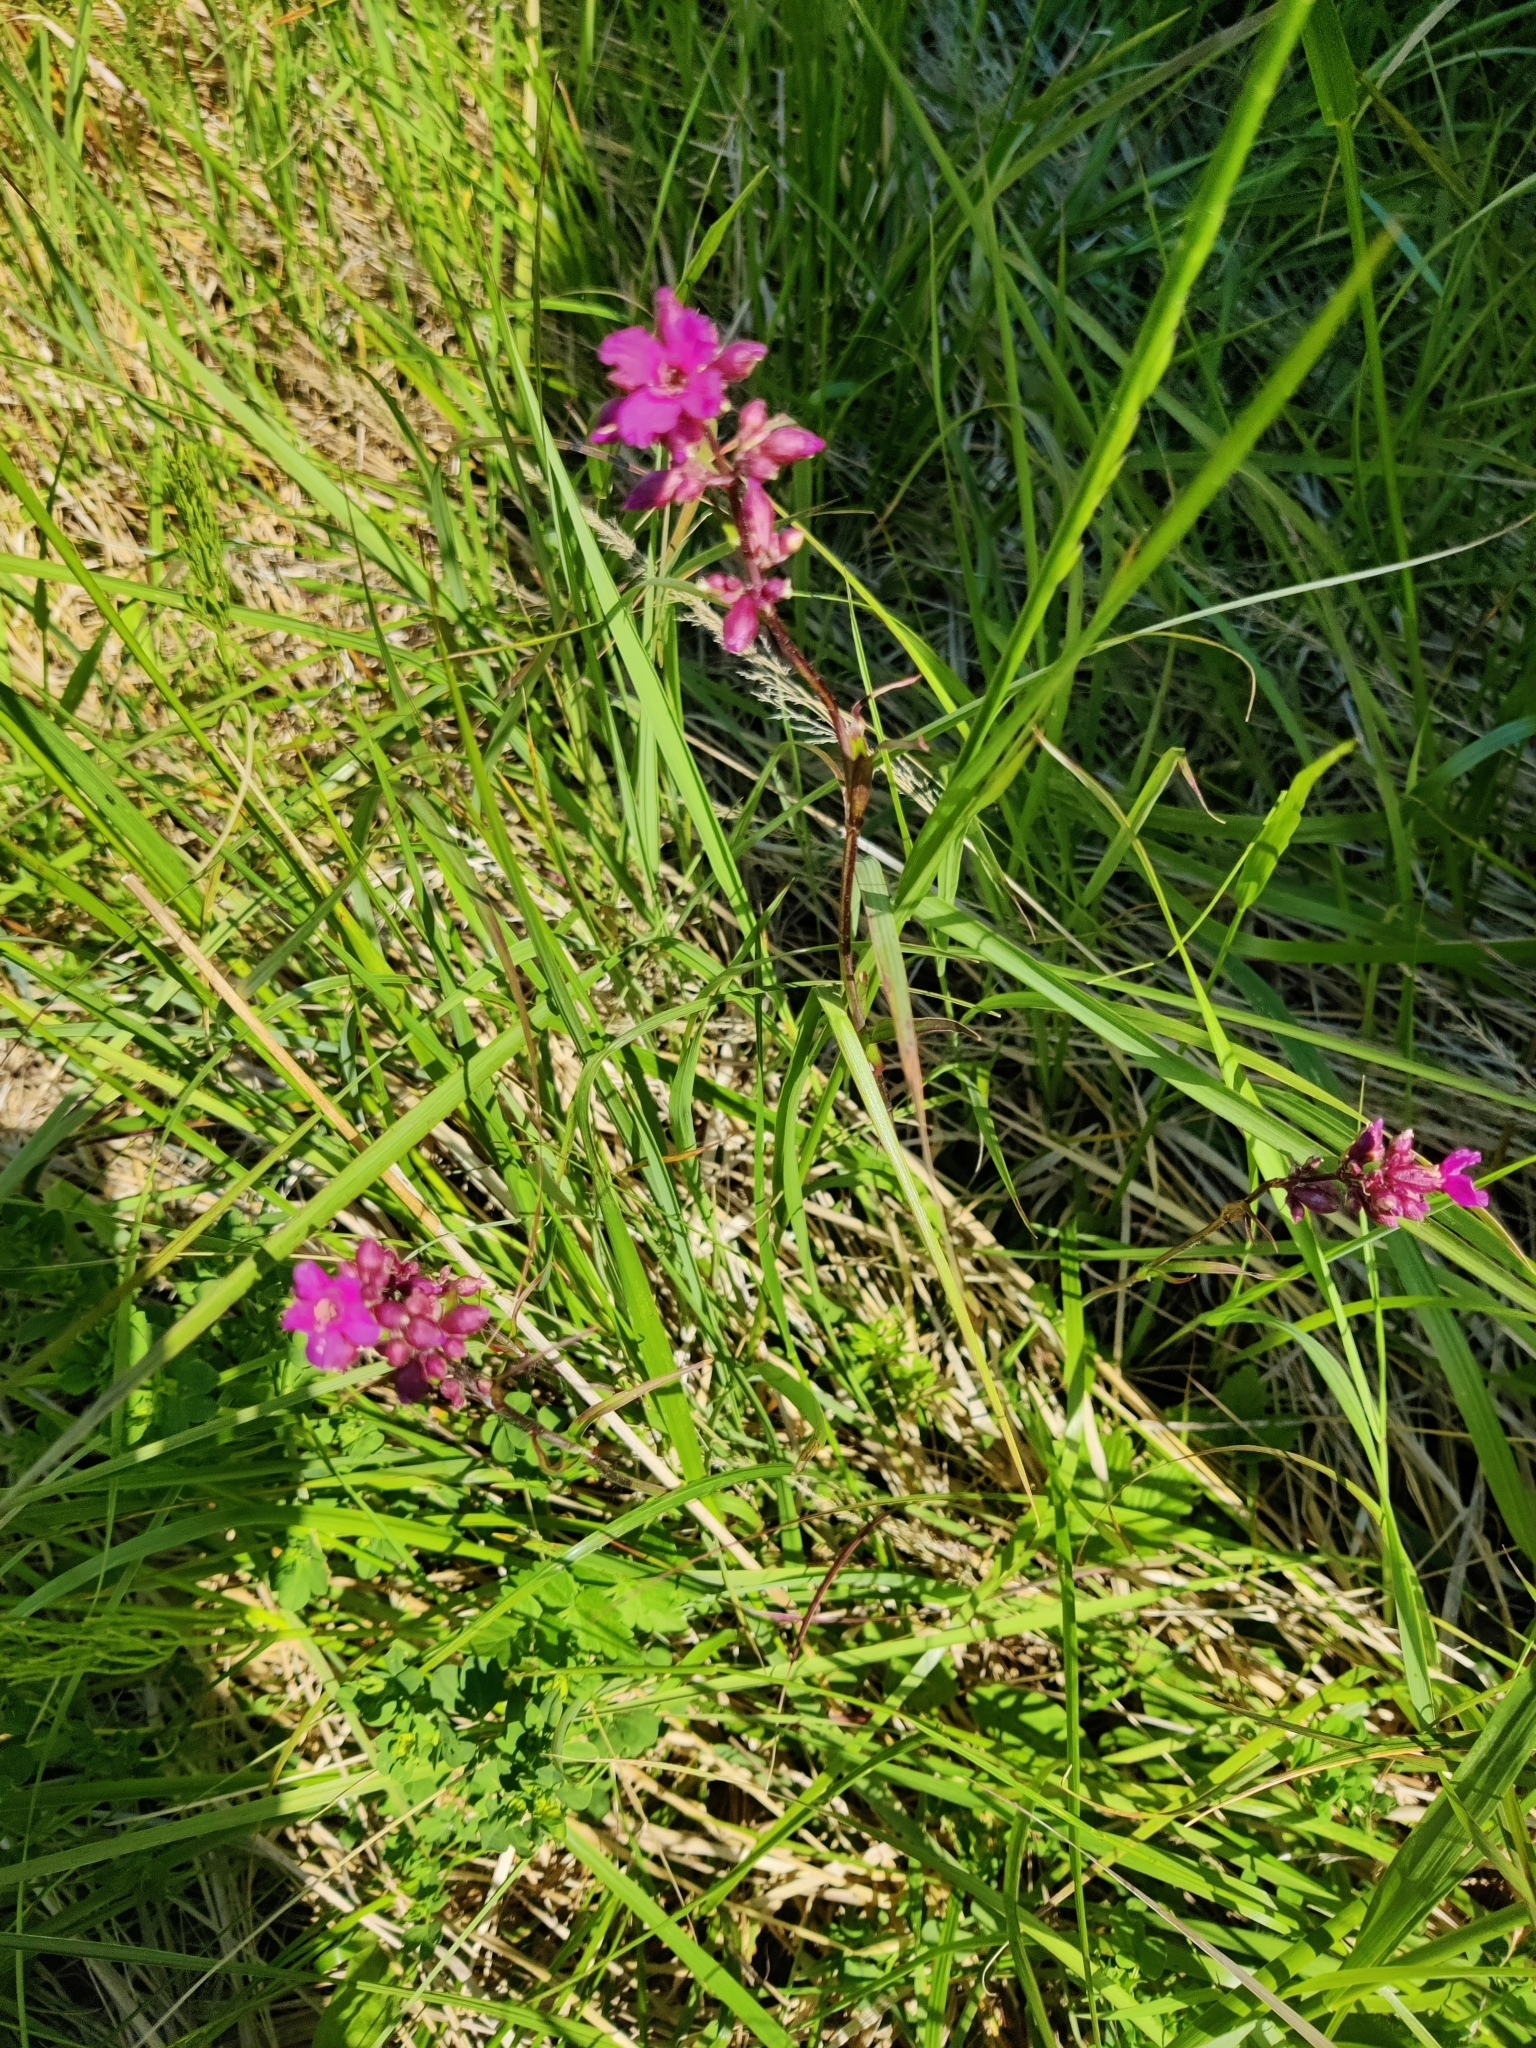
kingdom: Plantae
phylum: Tracheophyta
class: Magnoliopsida
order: Caryophyllales
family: Caryophyllaceae
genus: Viscaria
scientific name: Viscaria vulgaris
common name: Clammy campion
